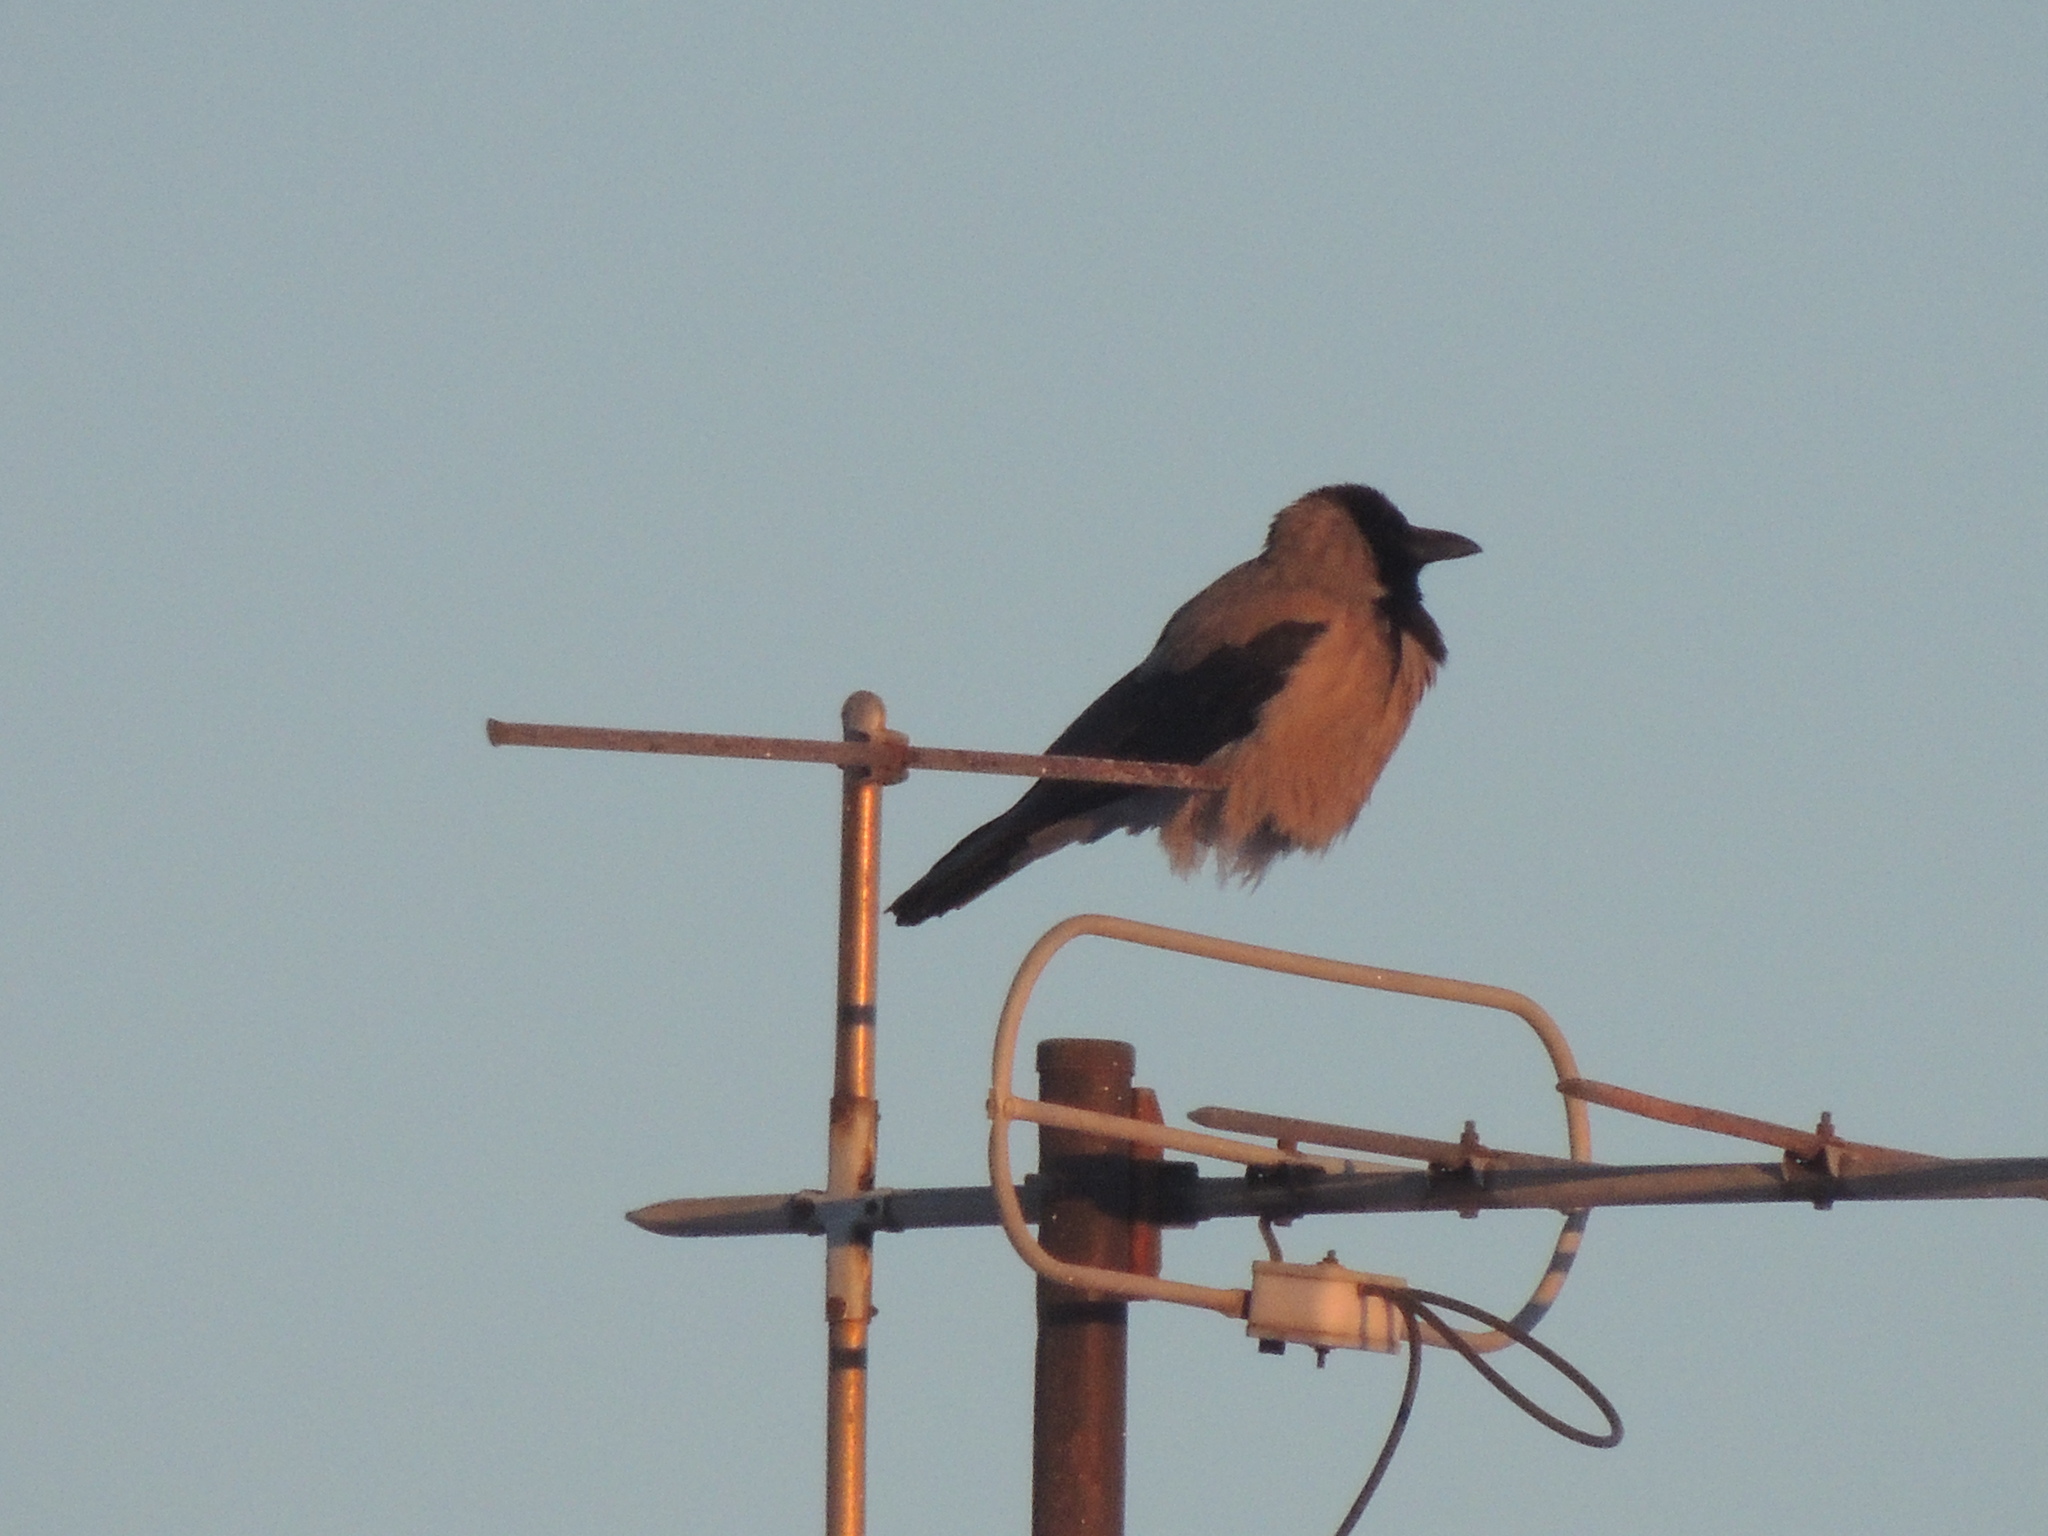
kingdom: Animalia
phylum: Chordata
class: Aves
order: Passeriformes
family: Corvidae
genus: Corvus
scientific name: Corvus cornix
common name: Hooded crow
